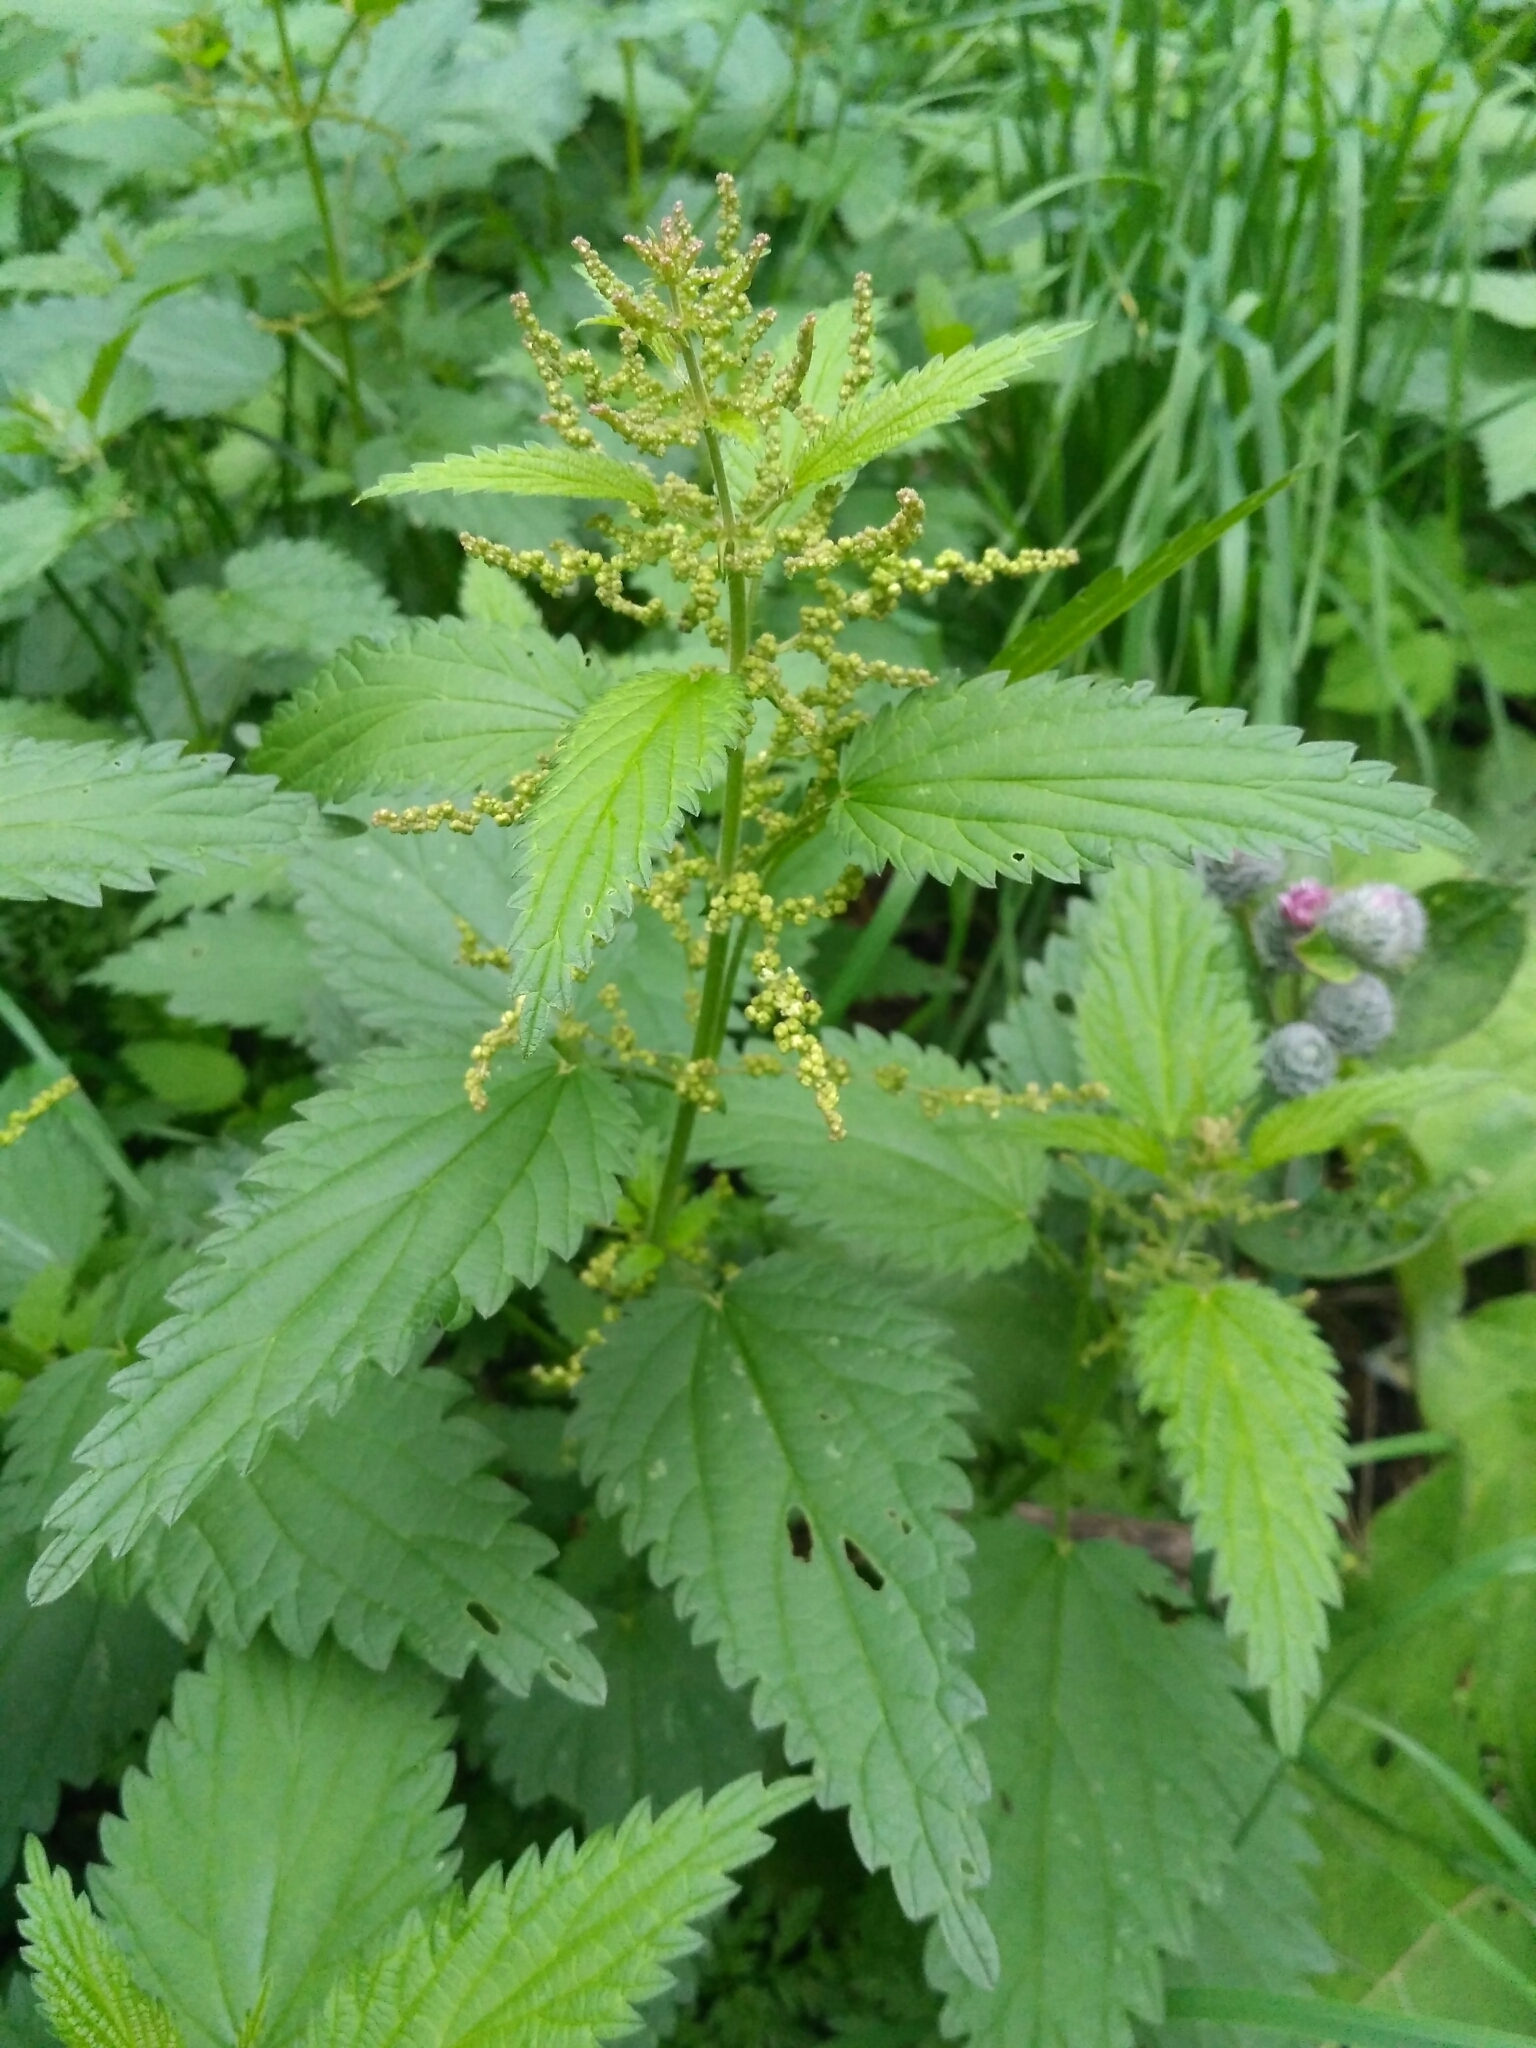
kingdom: Plantae
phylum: Tracheophyta
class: Magnoliopsida
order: Rosales
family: Urticaceae
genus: Urtica
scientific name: Urtica dioica
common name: Common nettle
